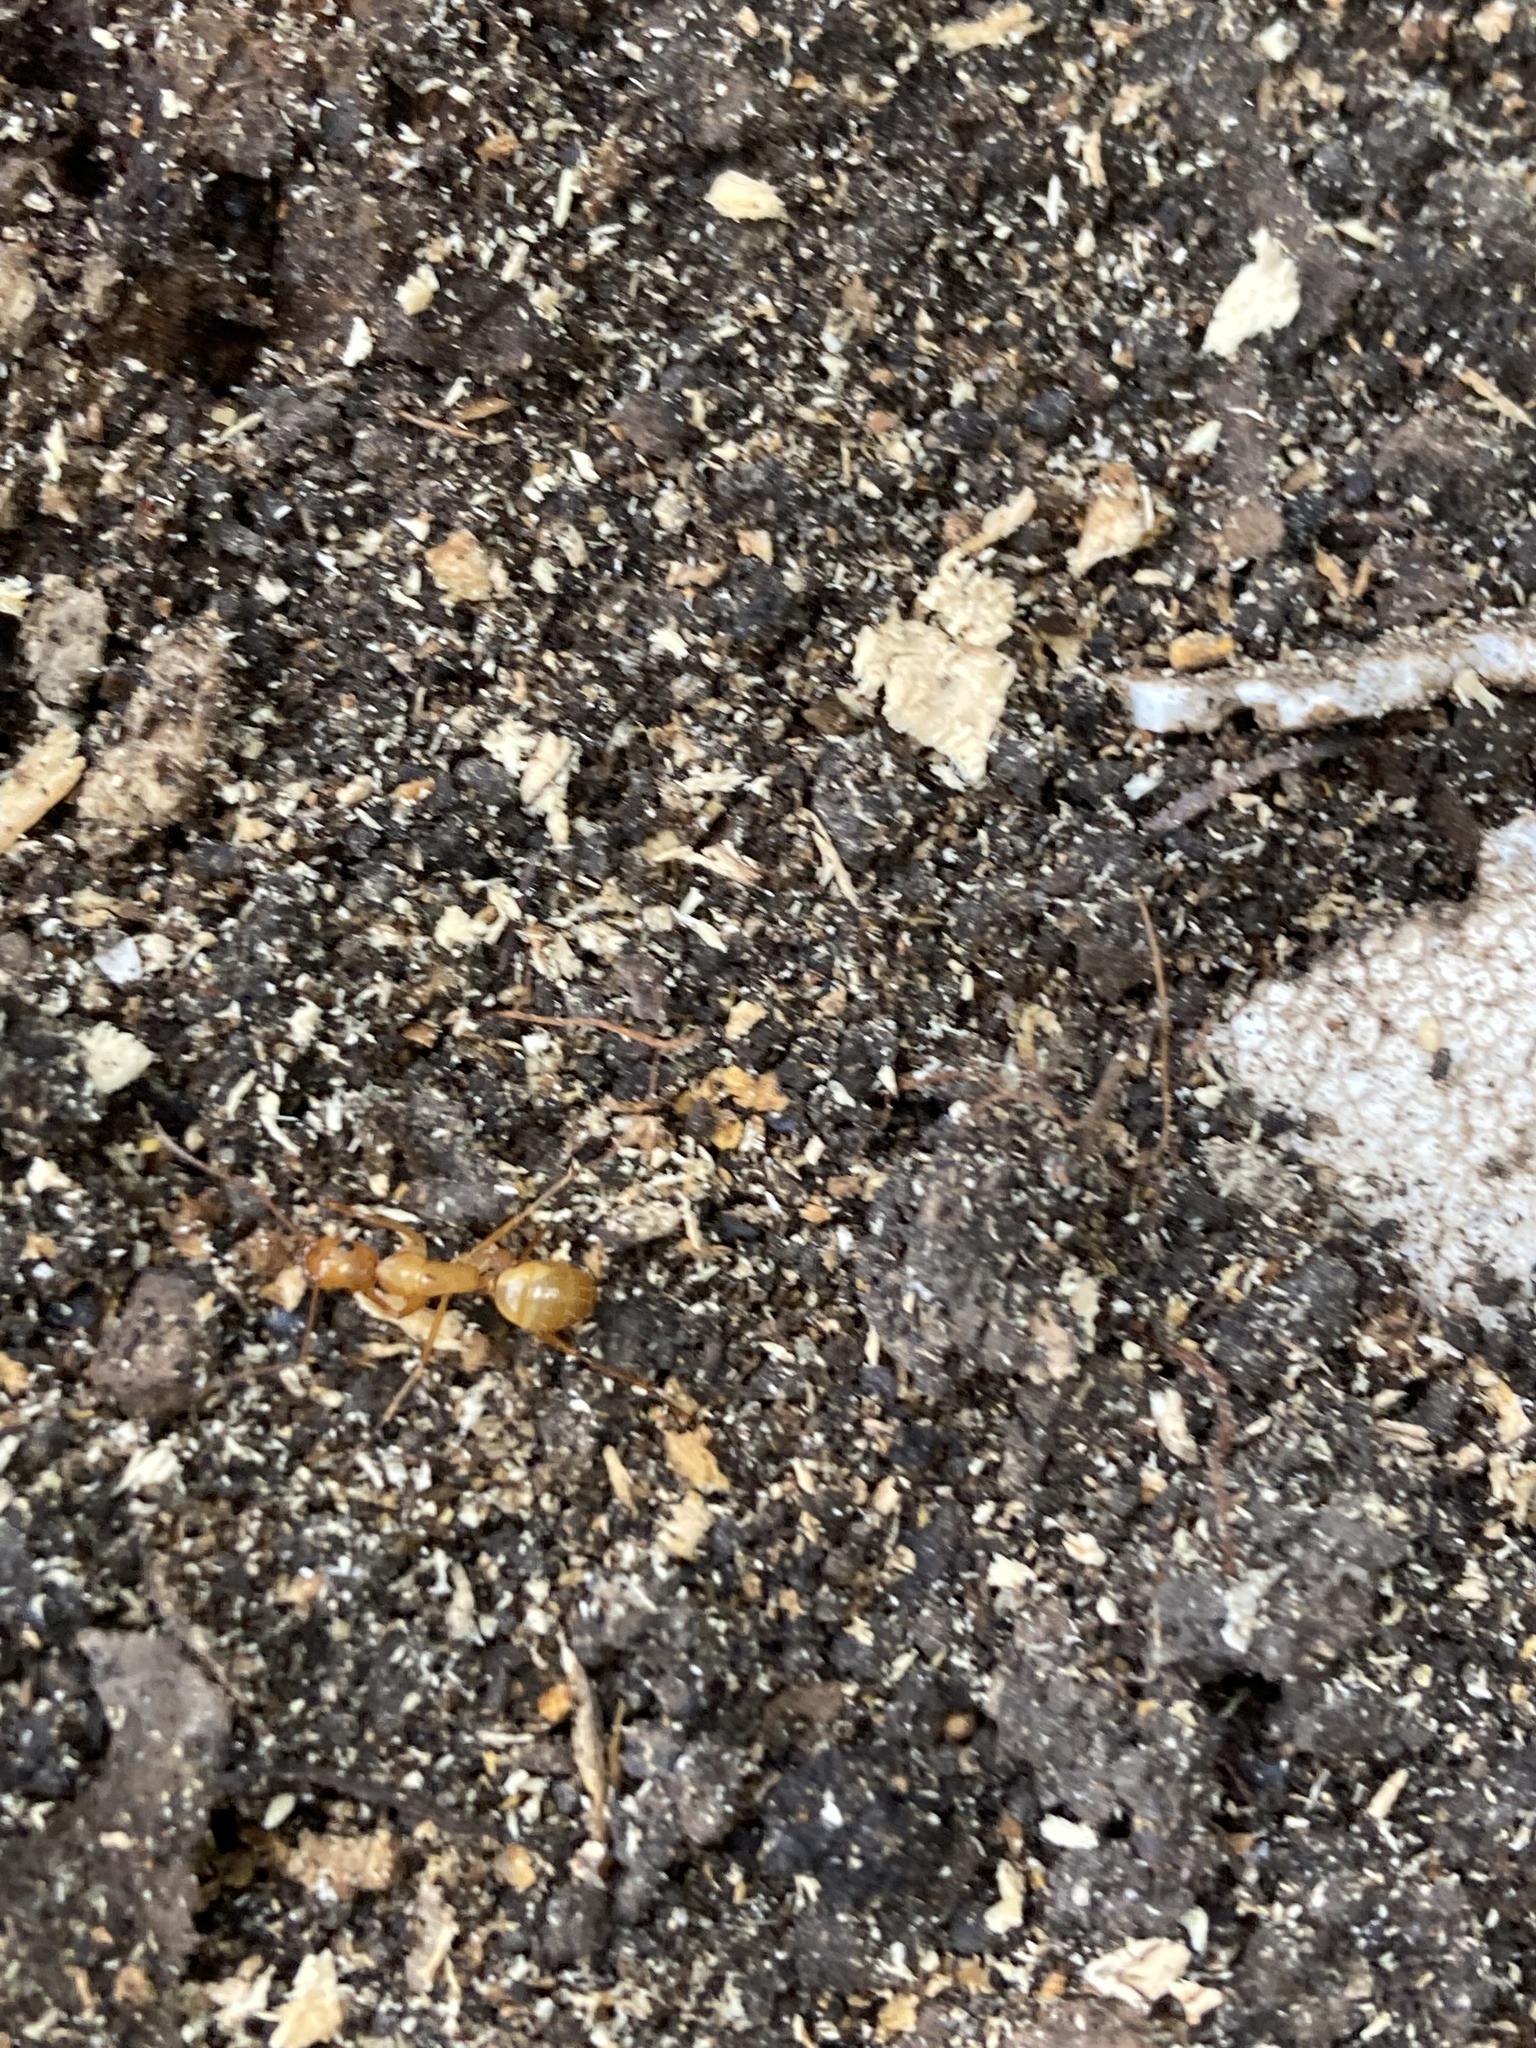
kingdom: Animalia
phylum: Arthropoda
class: Insecta
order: Hymenoptera
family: Formicidae
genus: Camponotus
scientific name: Camponotus castaneus
